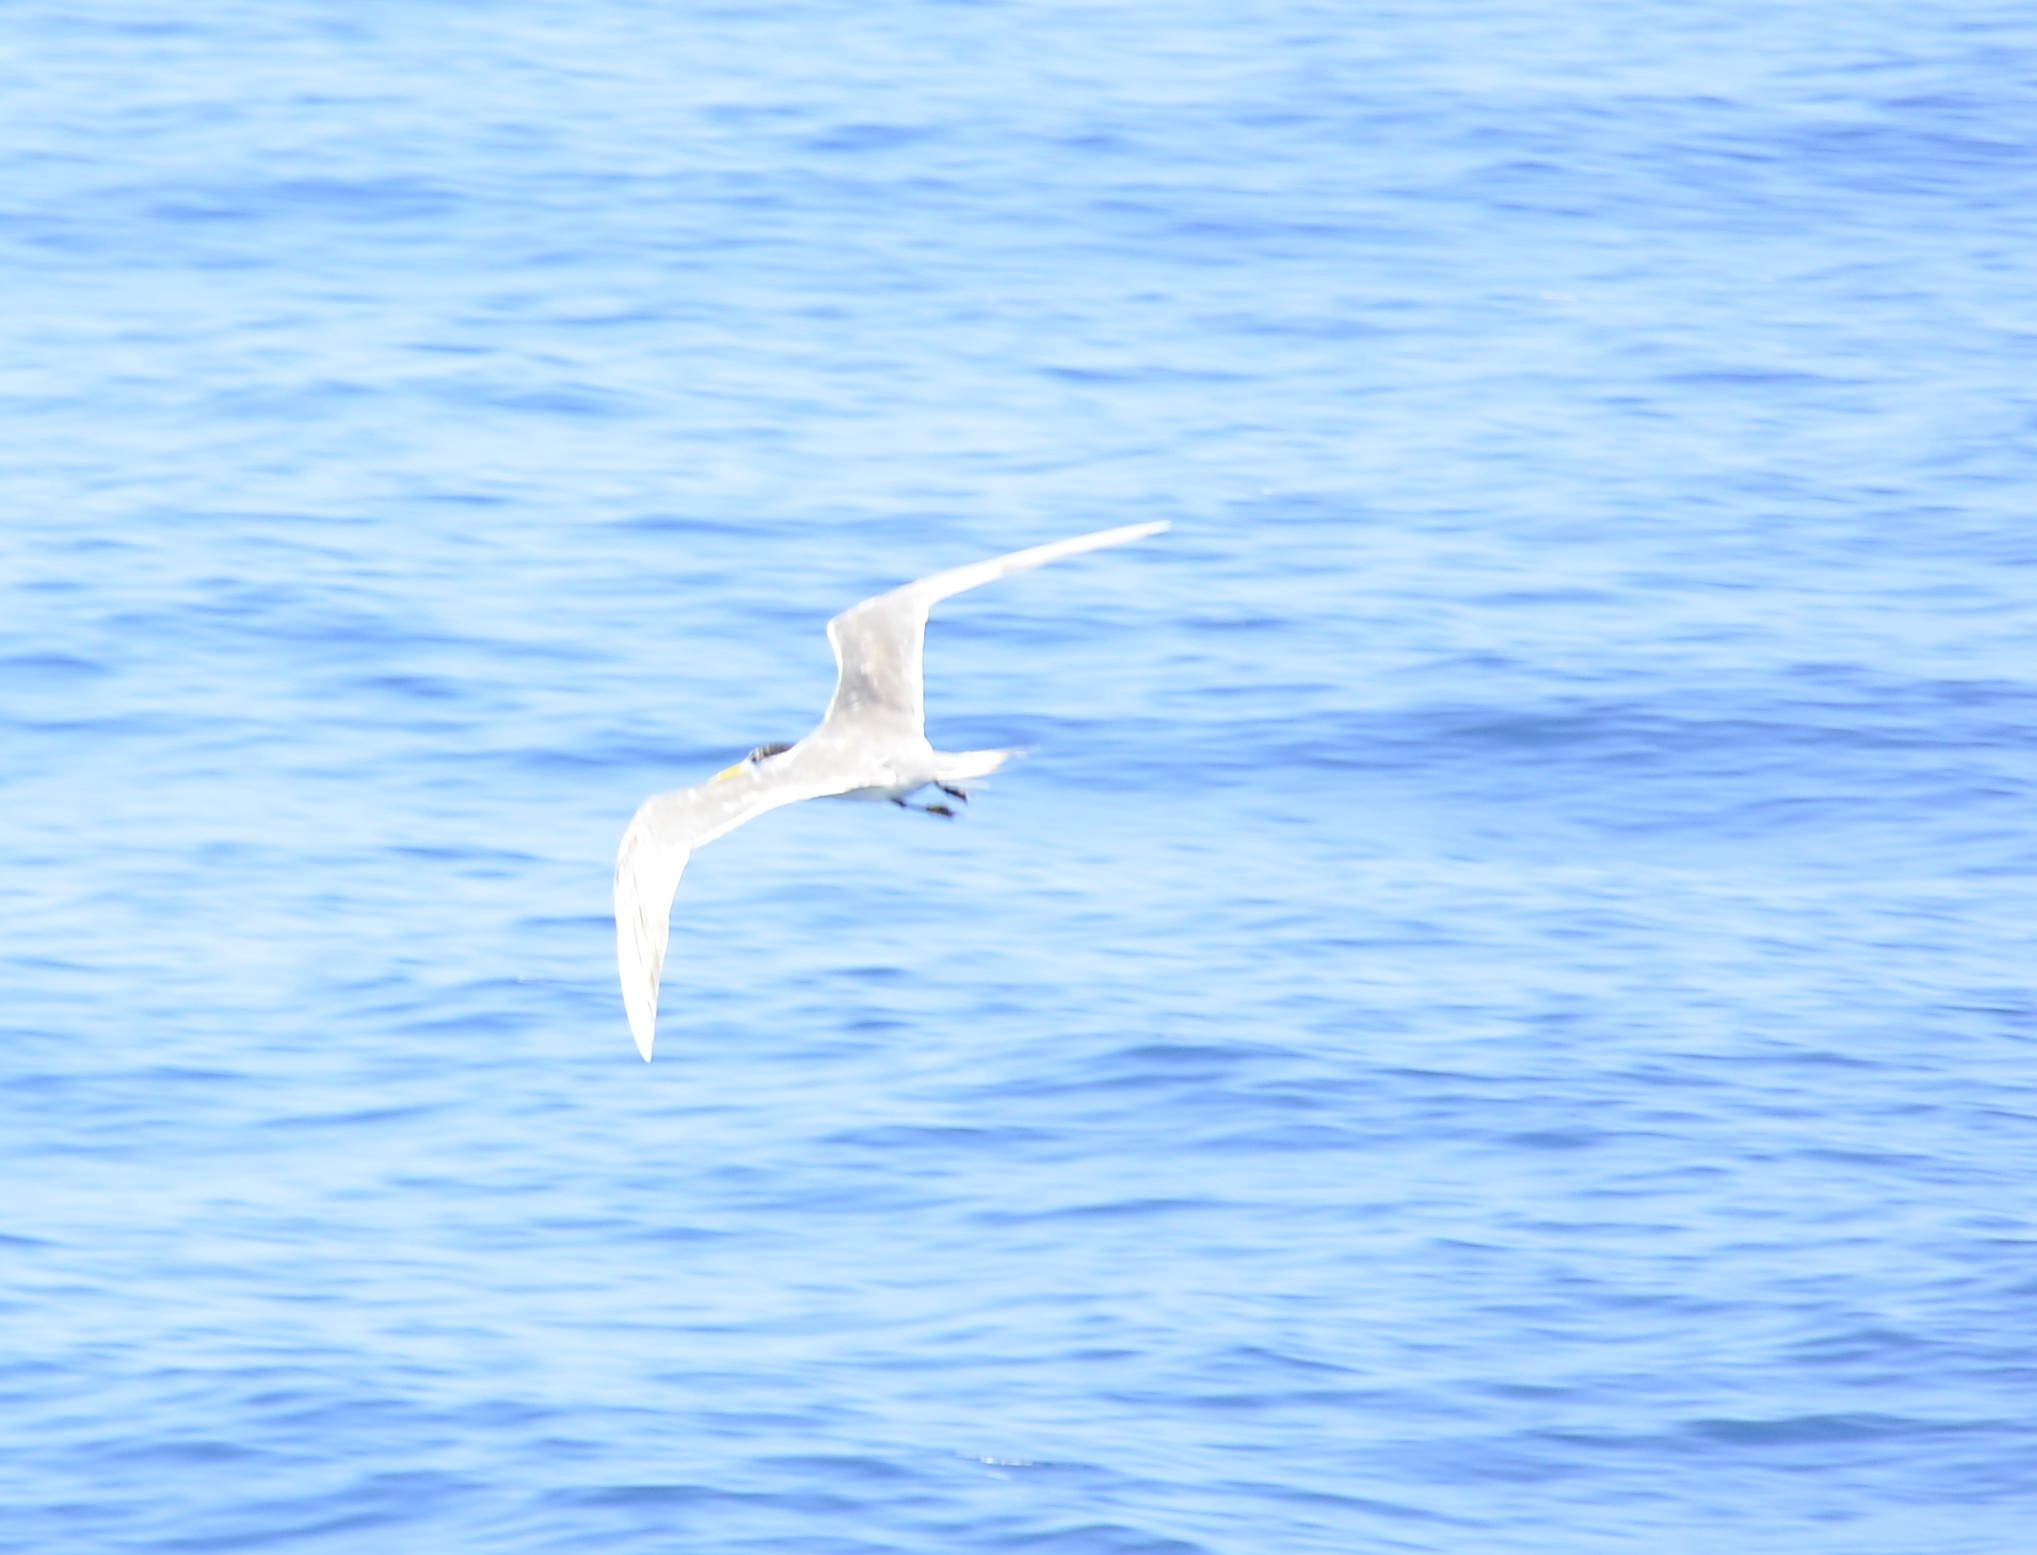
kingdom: Animalia
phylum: Chordata
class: Aves
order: Charadriiformes
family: Laridae
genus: Thalasseus
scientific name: Thalasseus bergii
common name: Greater crested tern
